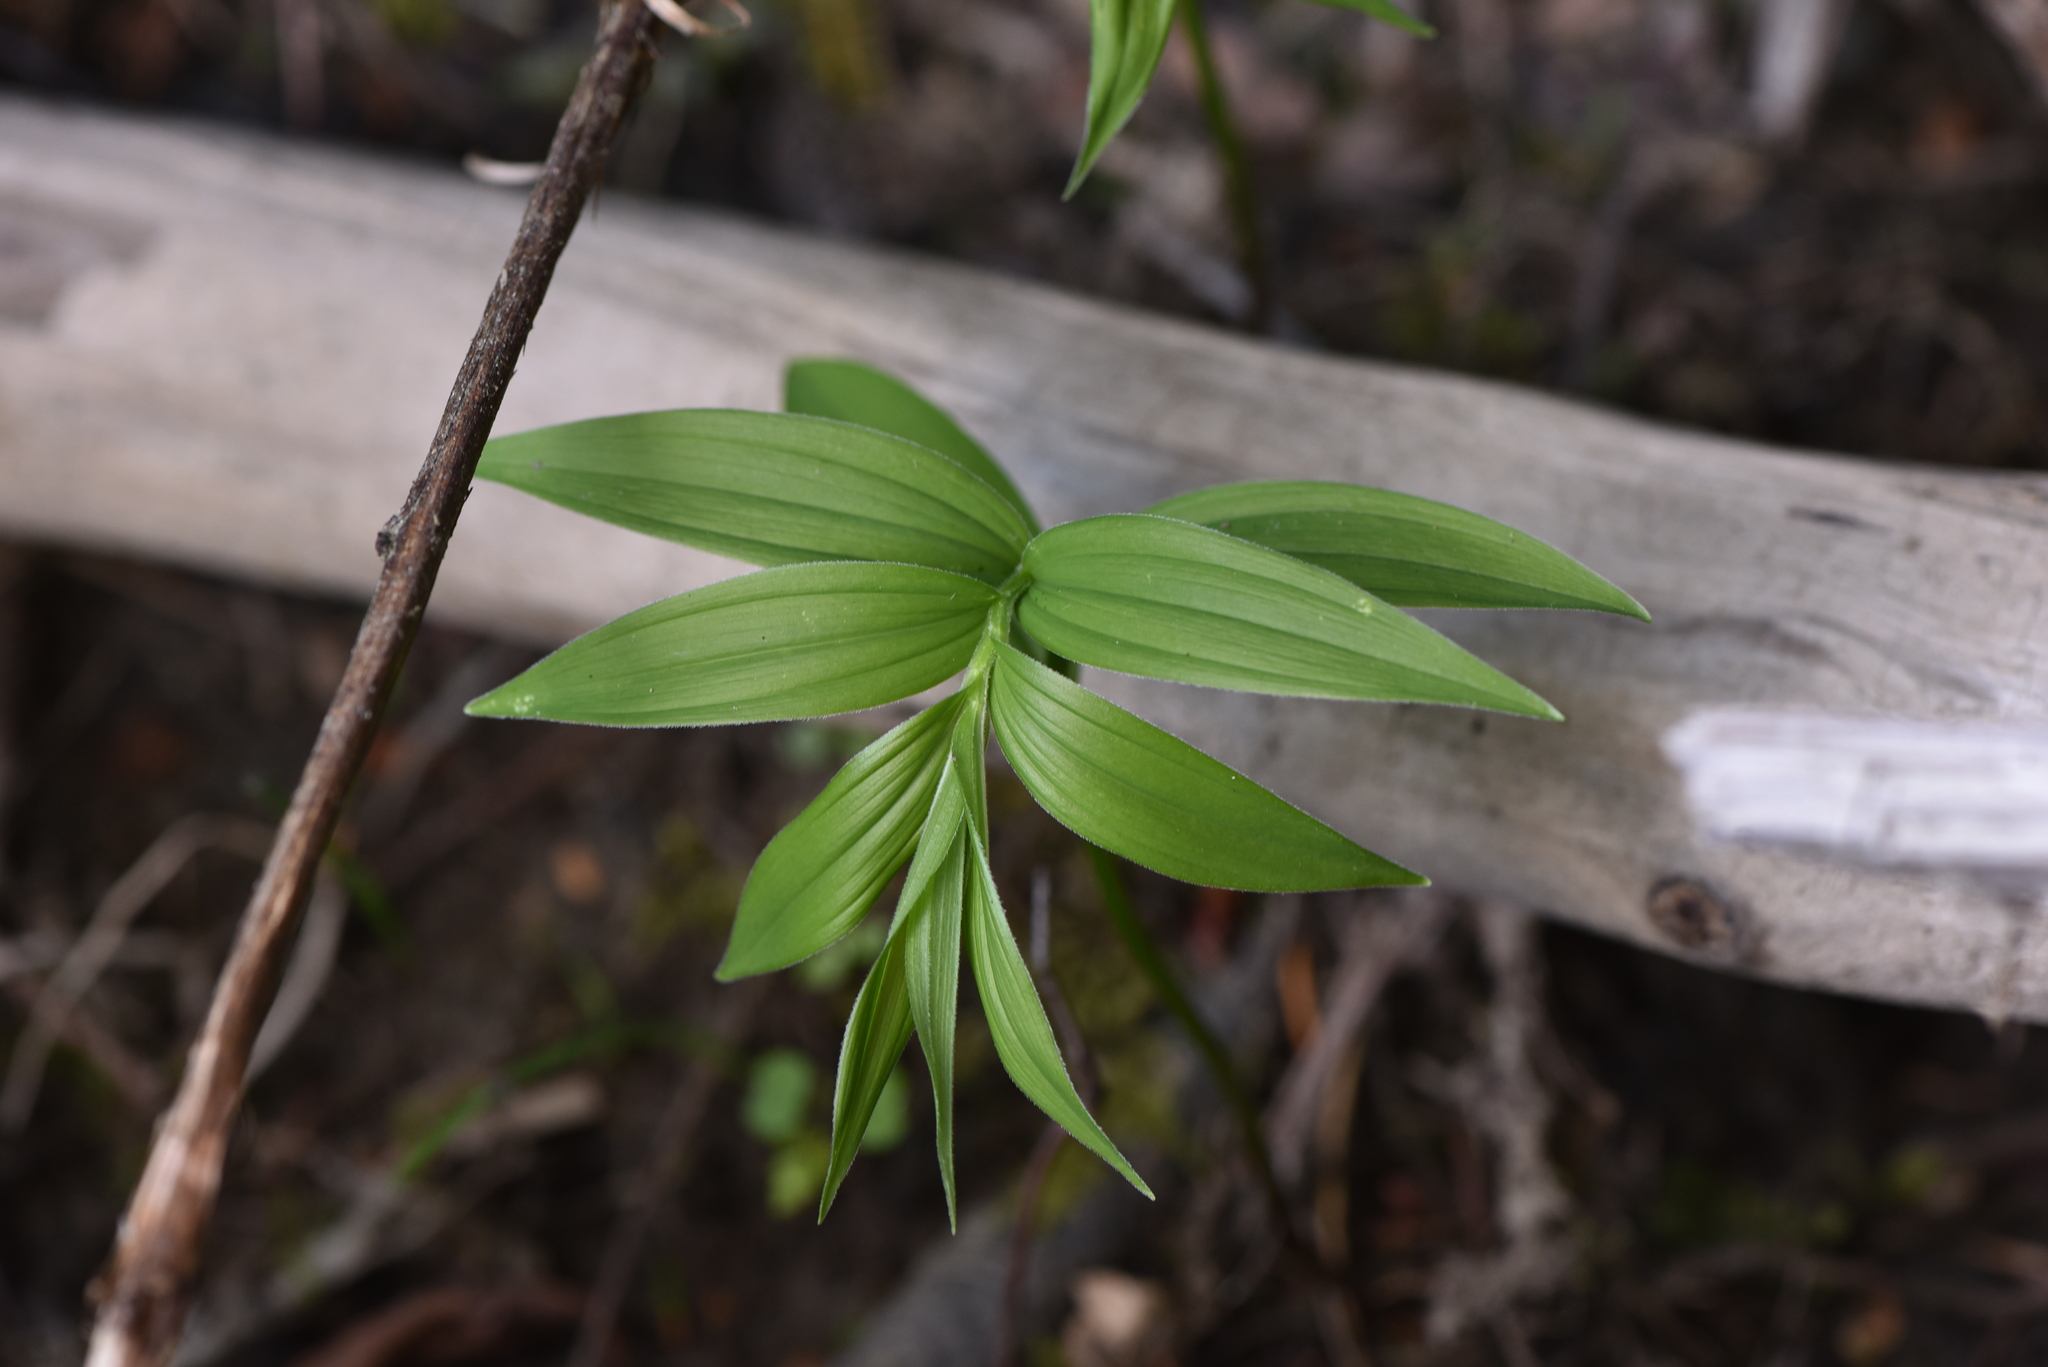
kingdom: Plantae
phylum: Tracheophyta
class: Liliopsida
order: Asparagales
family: Asparagaceae
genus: Maianthemum
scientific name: Maianthemum stellatum
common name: Little false solomon's seal
